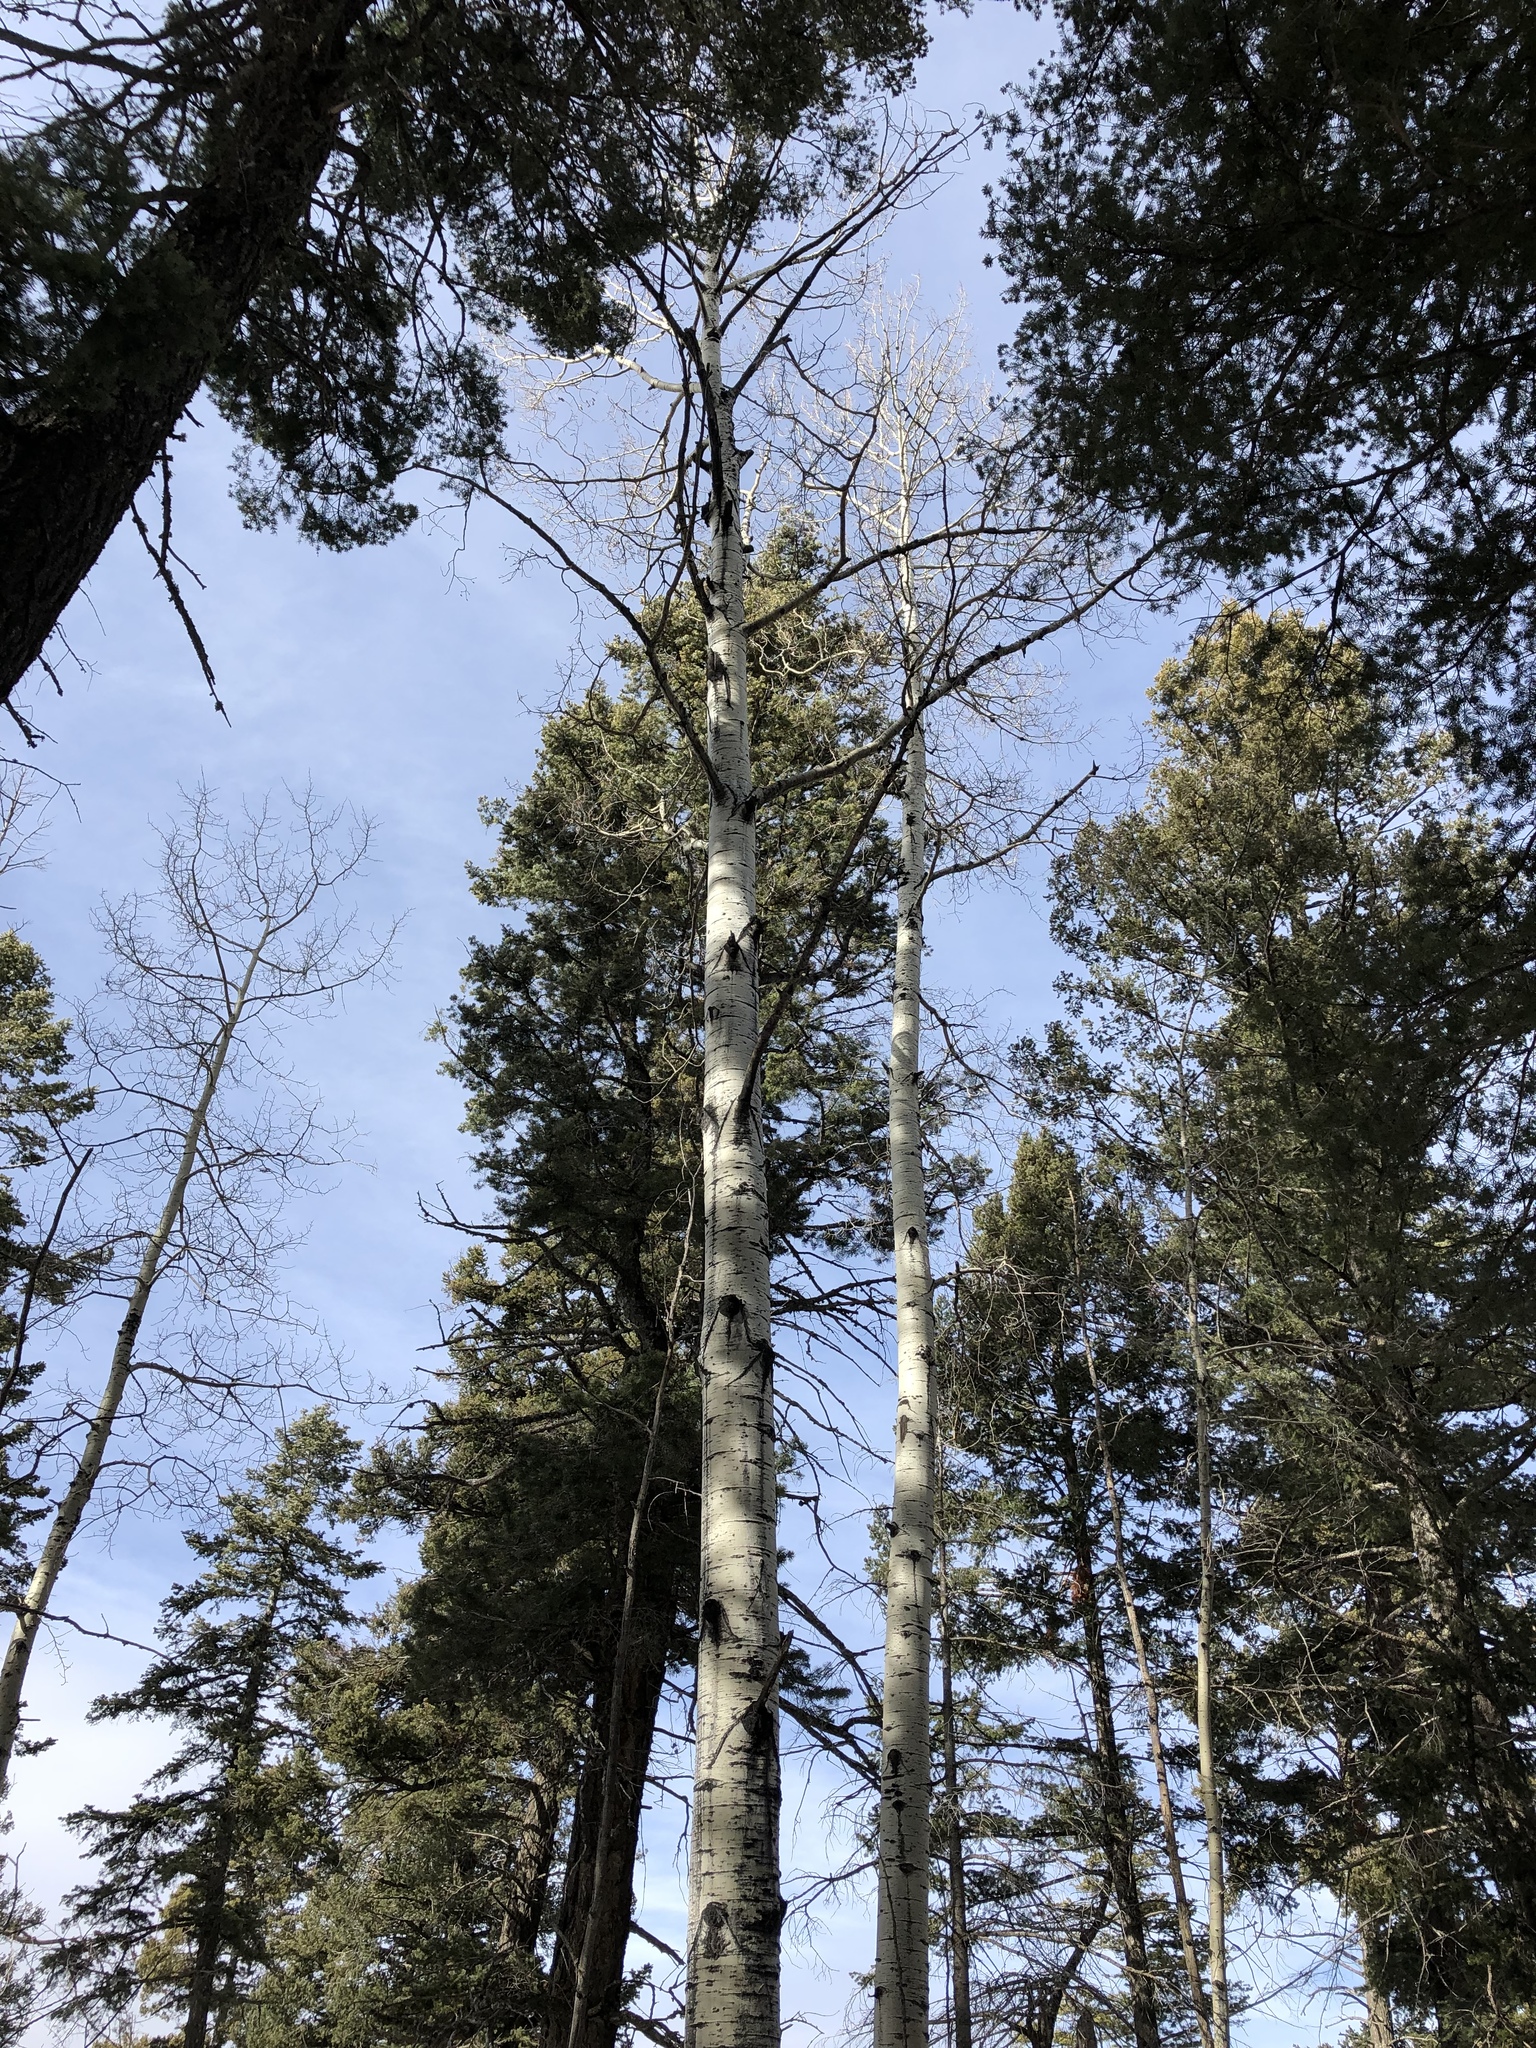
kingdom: Plantae
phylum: Tracheophyta
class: Magnoliopsida
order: Malpighiales
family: Salicaceae
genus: Populus
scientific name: Populus tremuloides
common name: Quaking aspen
